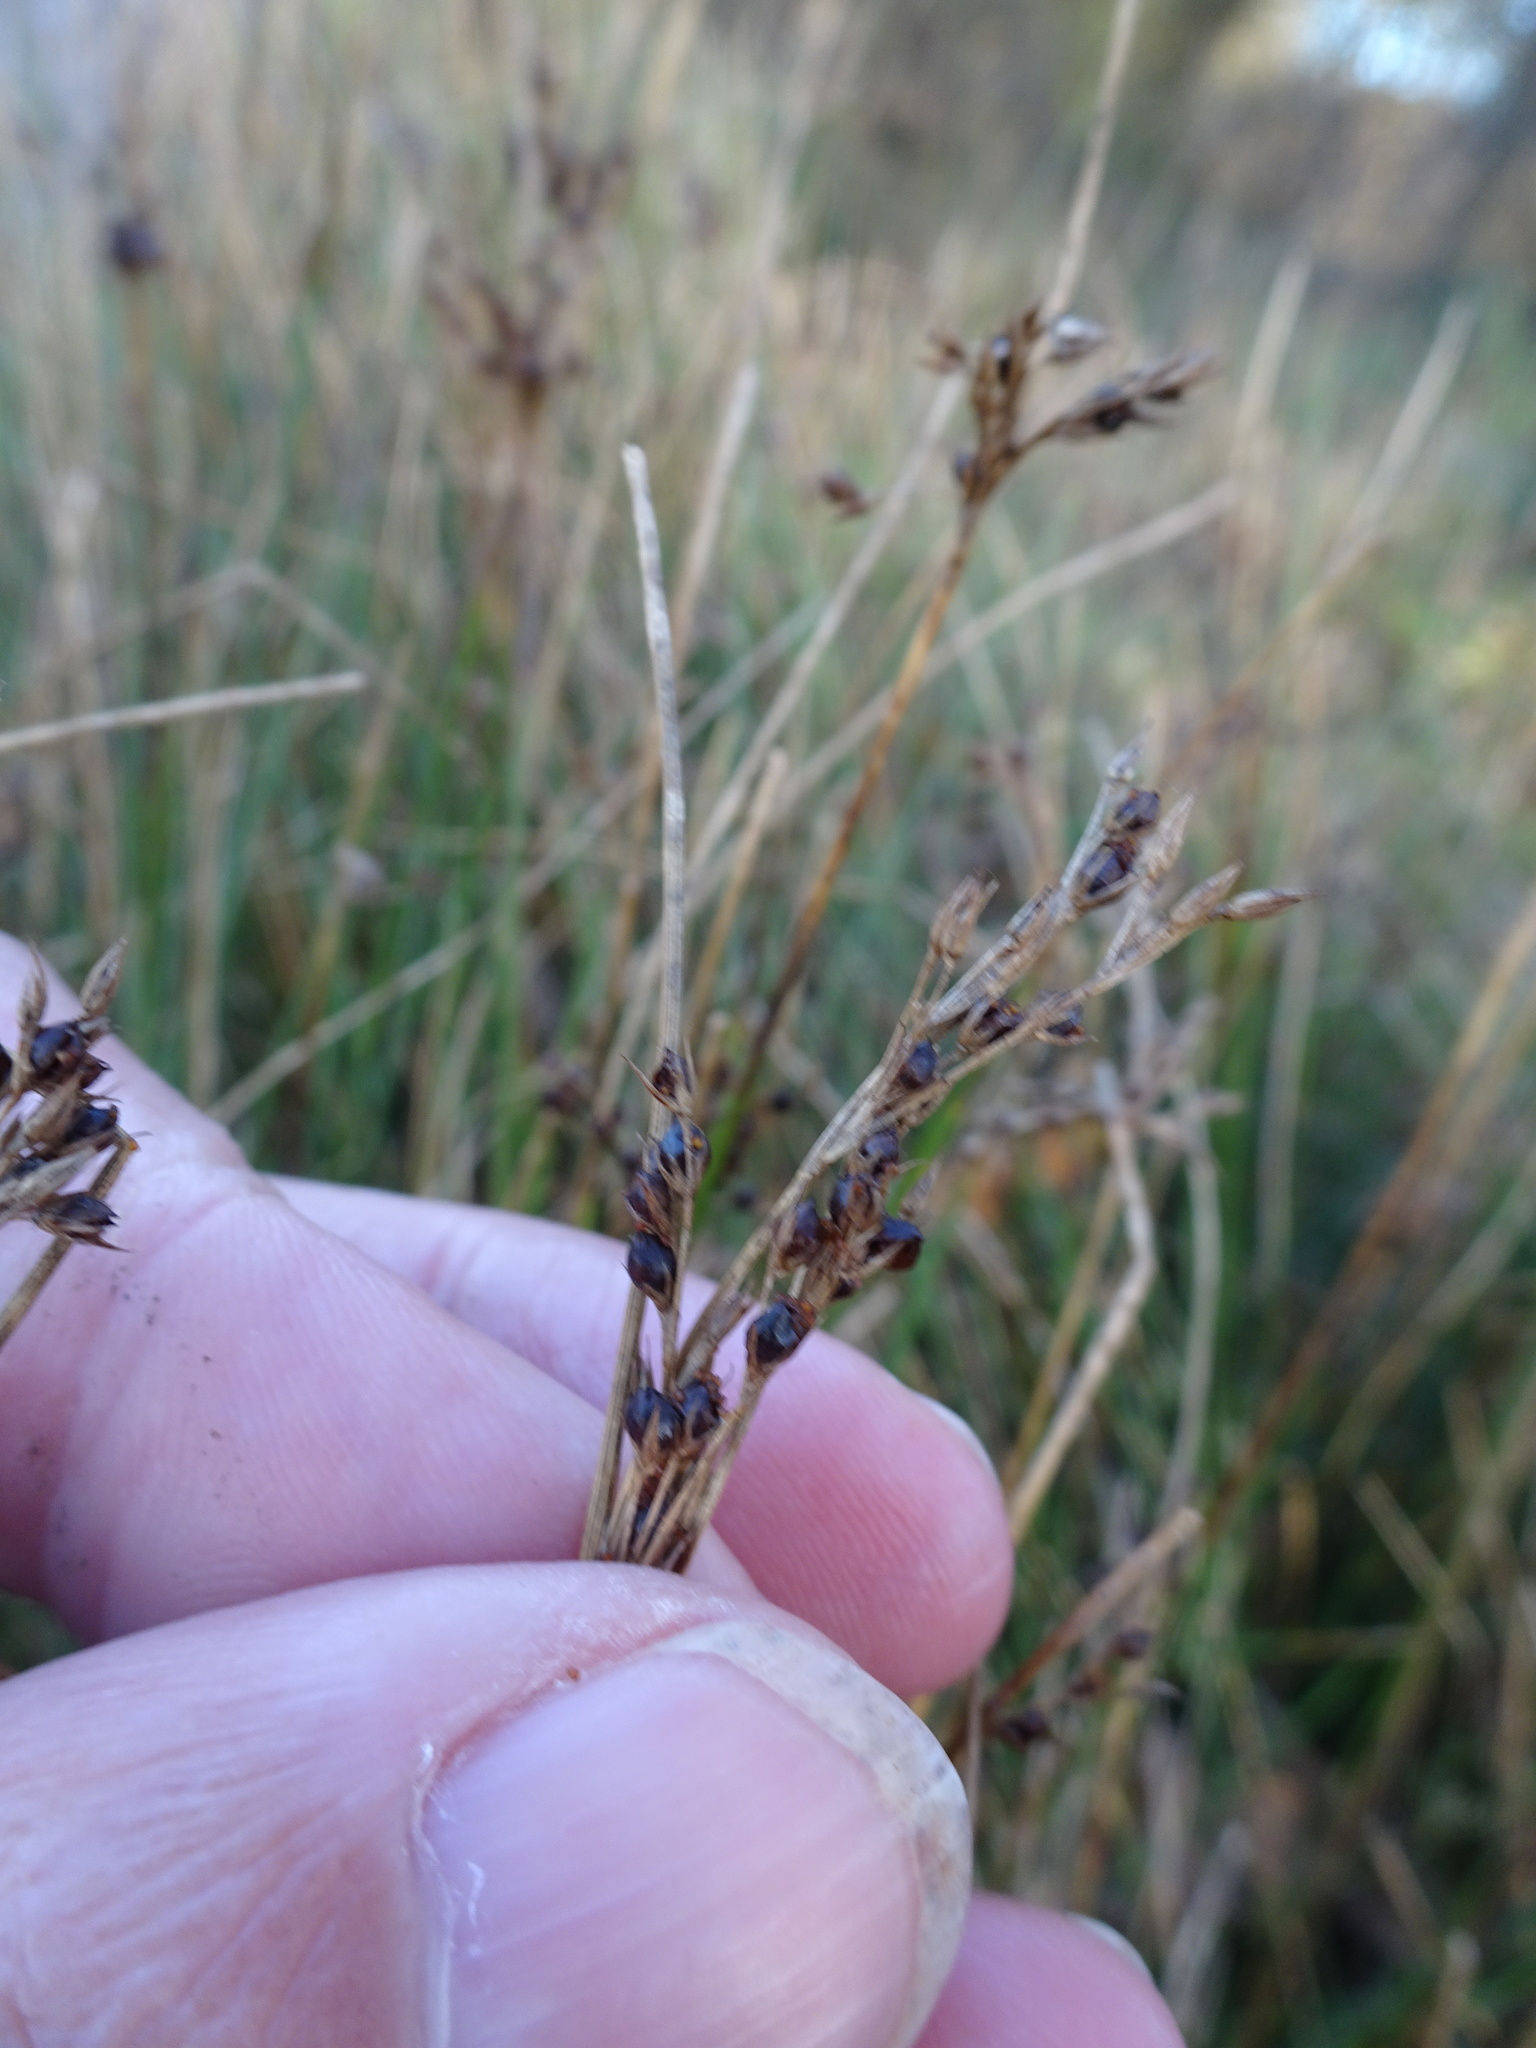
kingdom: Plantae
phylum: Tracheophyta
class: Liliopsida
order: Poales
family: Juncaceae
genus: Juncus
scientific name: Juncus inflexus
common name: Hard rush
